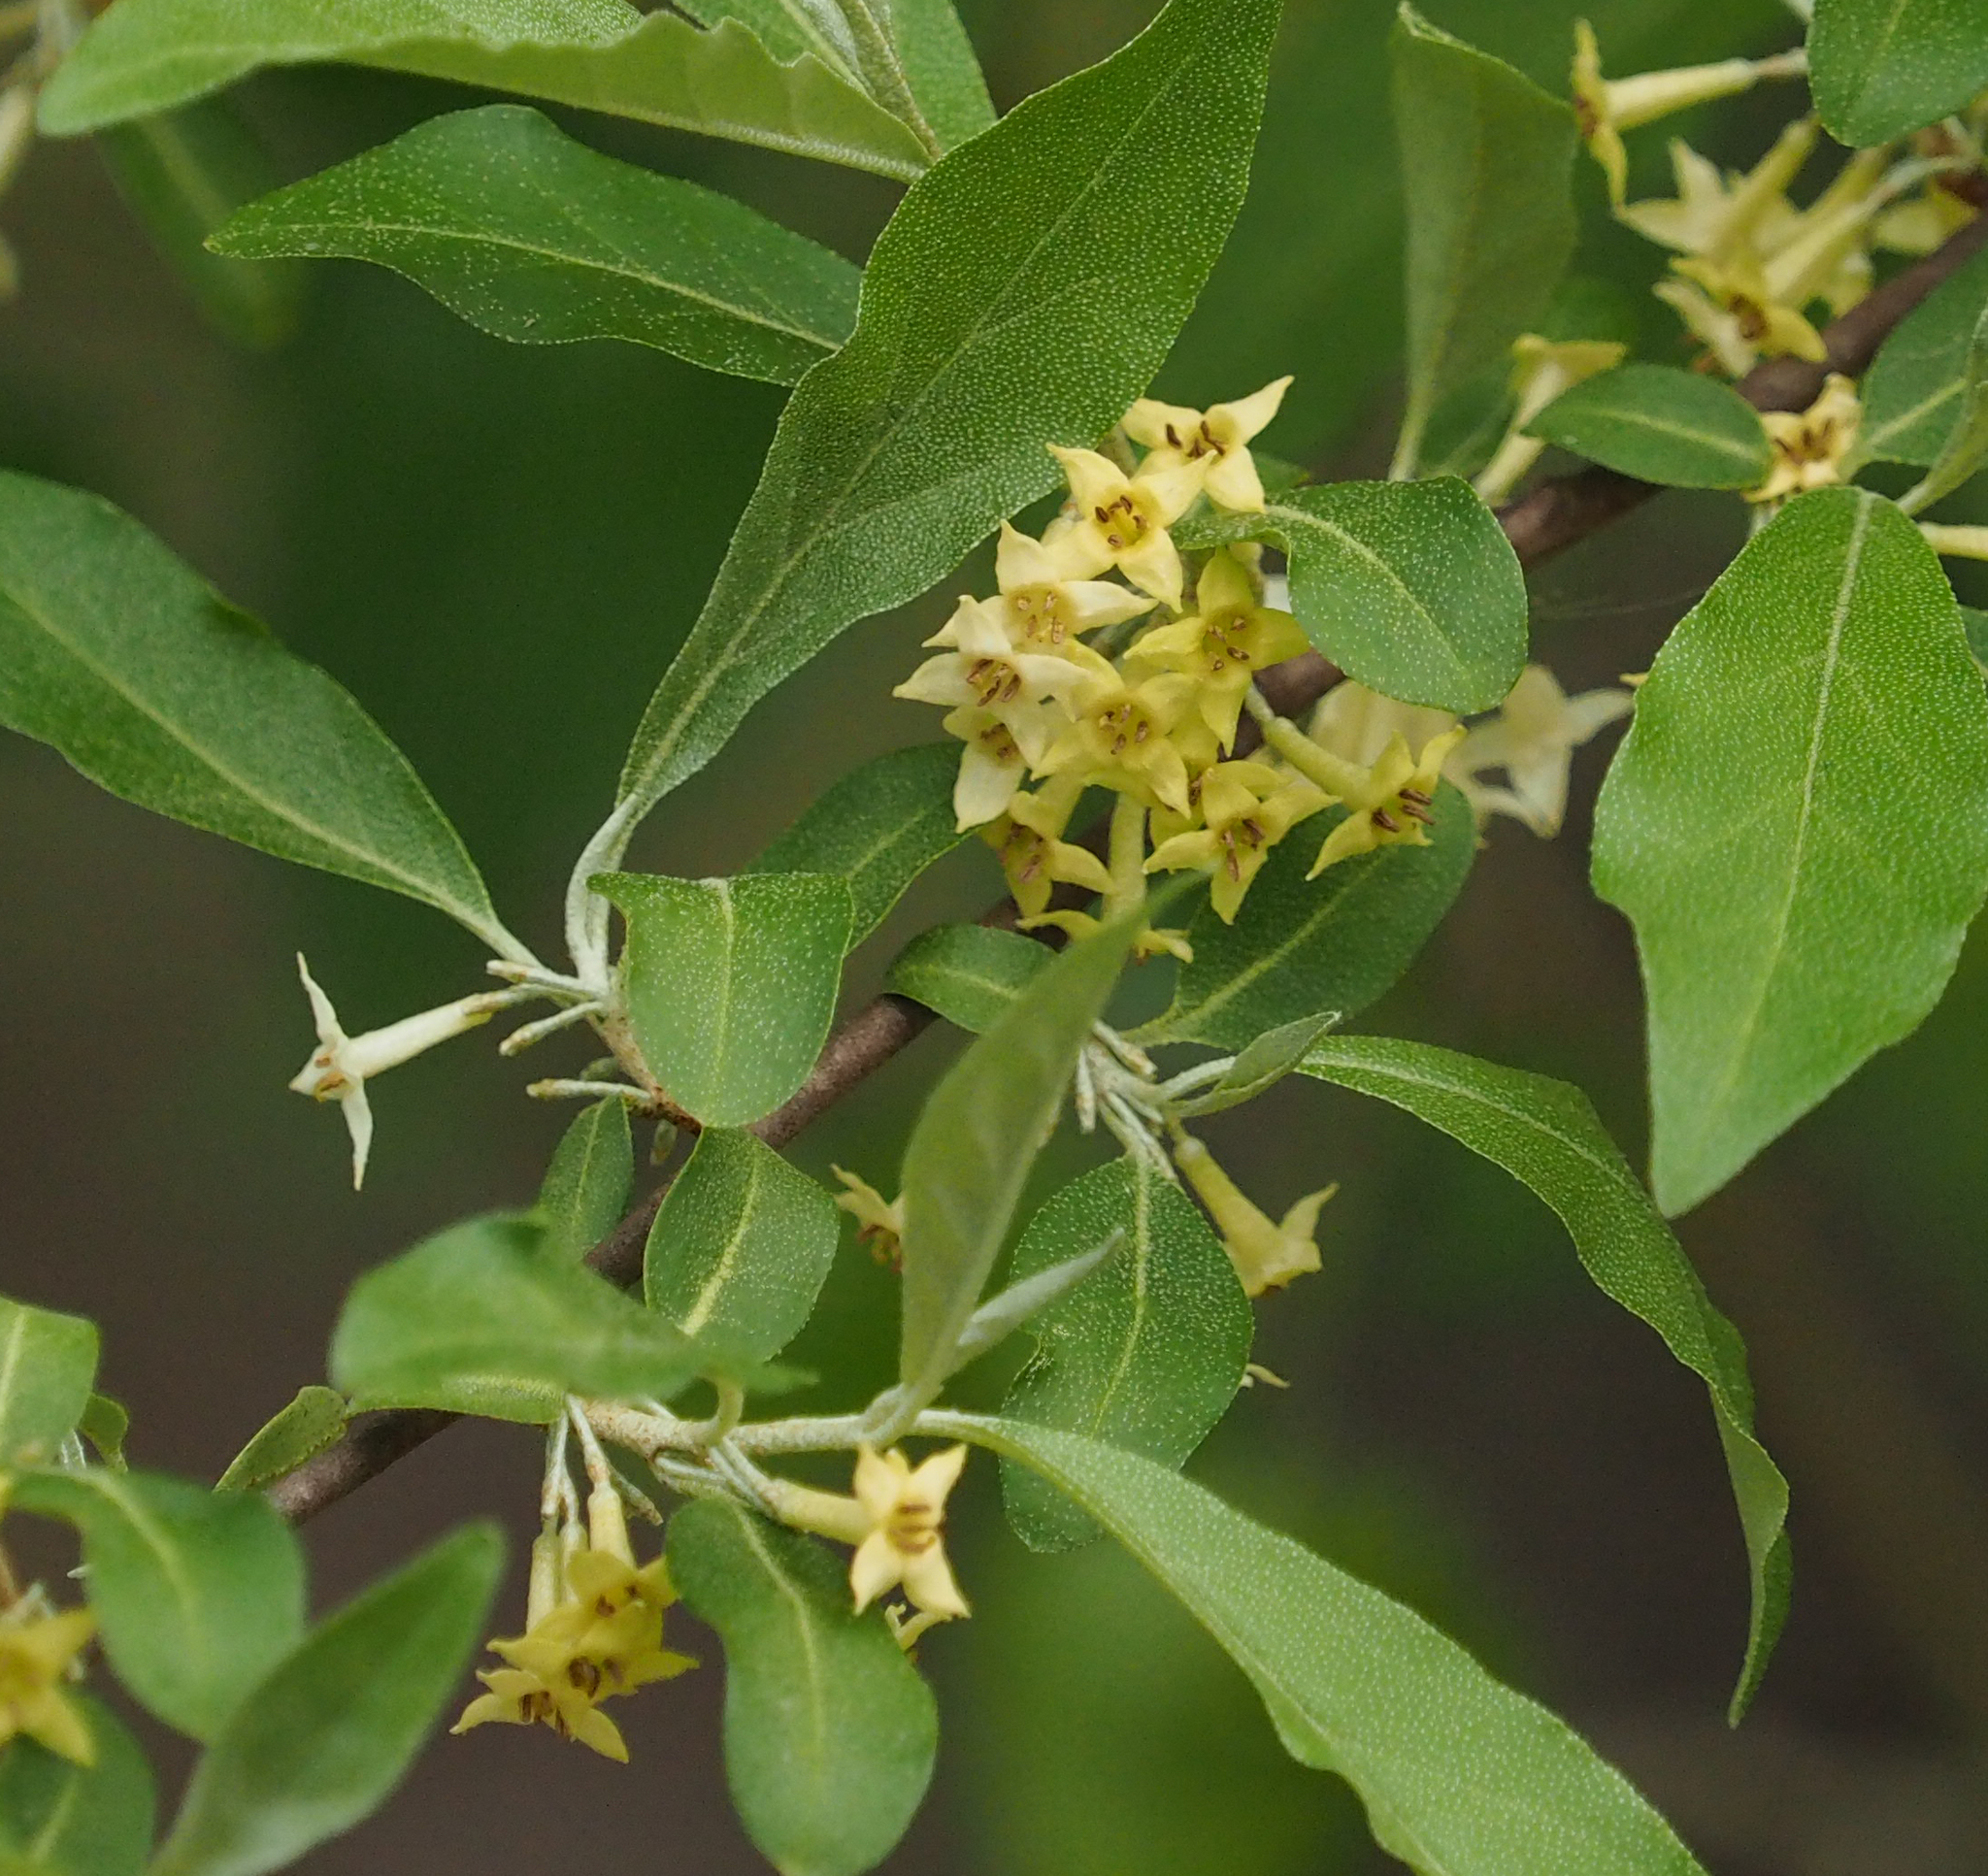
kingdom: Plantae
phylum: Tracheophyta
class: Magnoliopsida
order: Rosales
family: Elaeagnaceae
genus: Elaeagnus
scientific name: Elaeagnus umbellata
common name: Autumn olive
